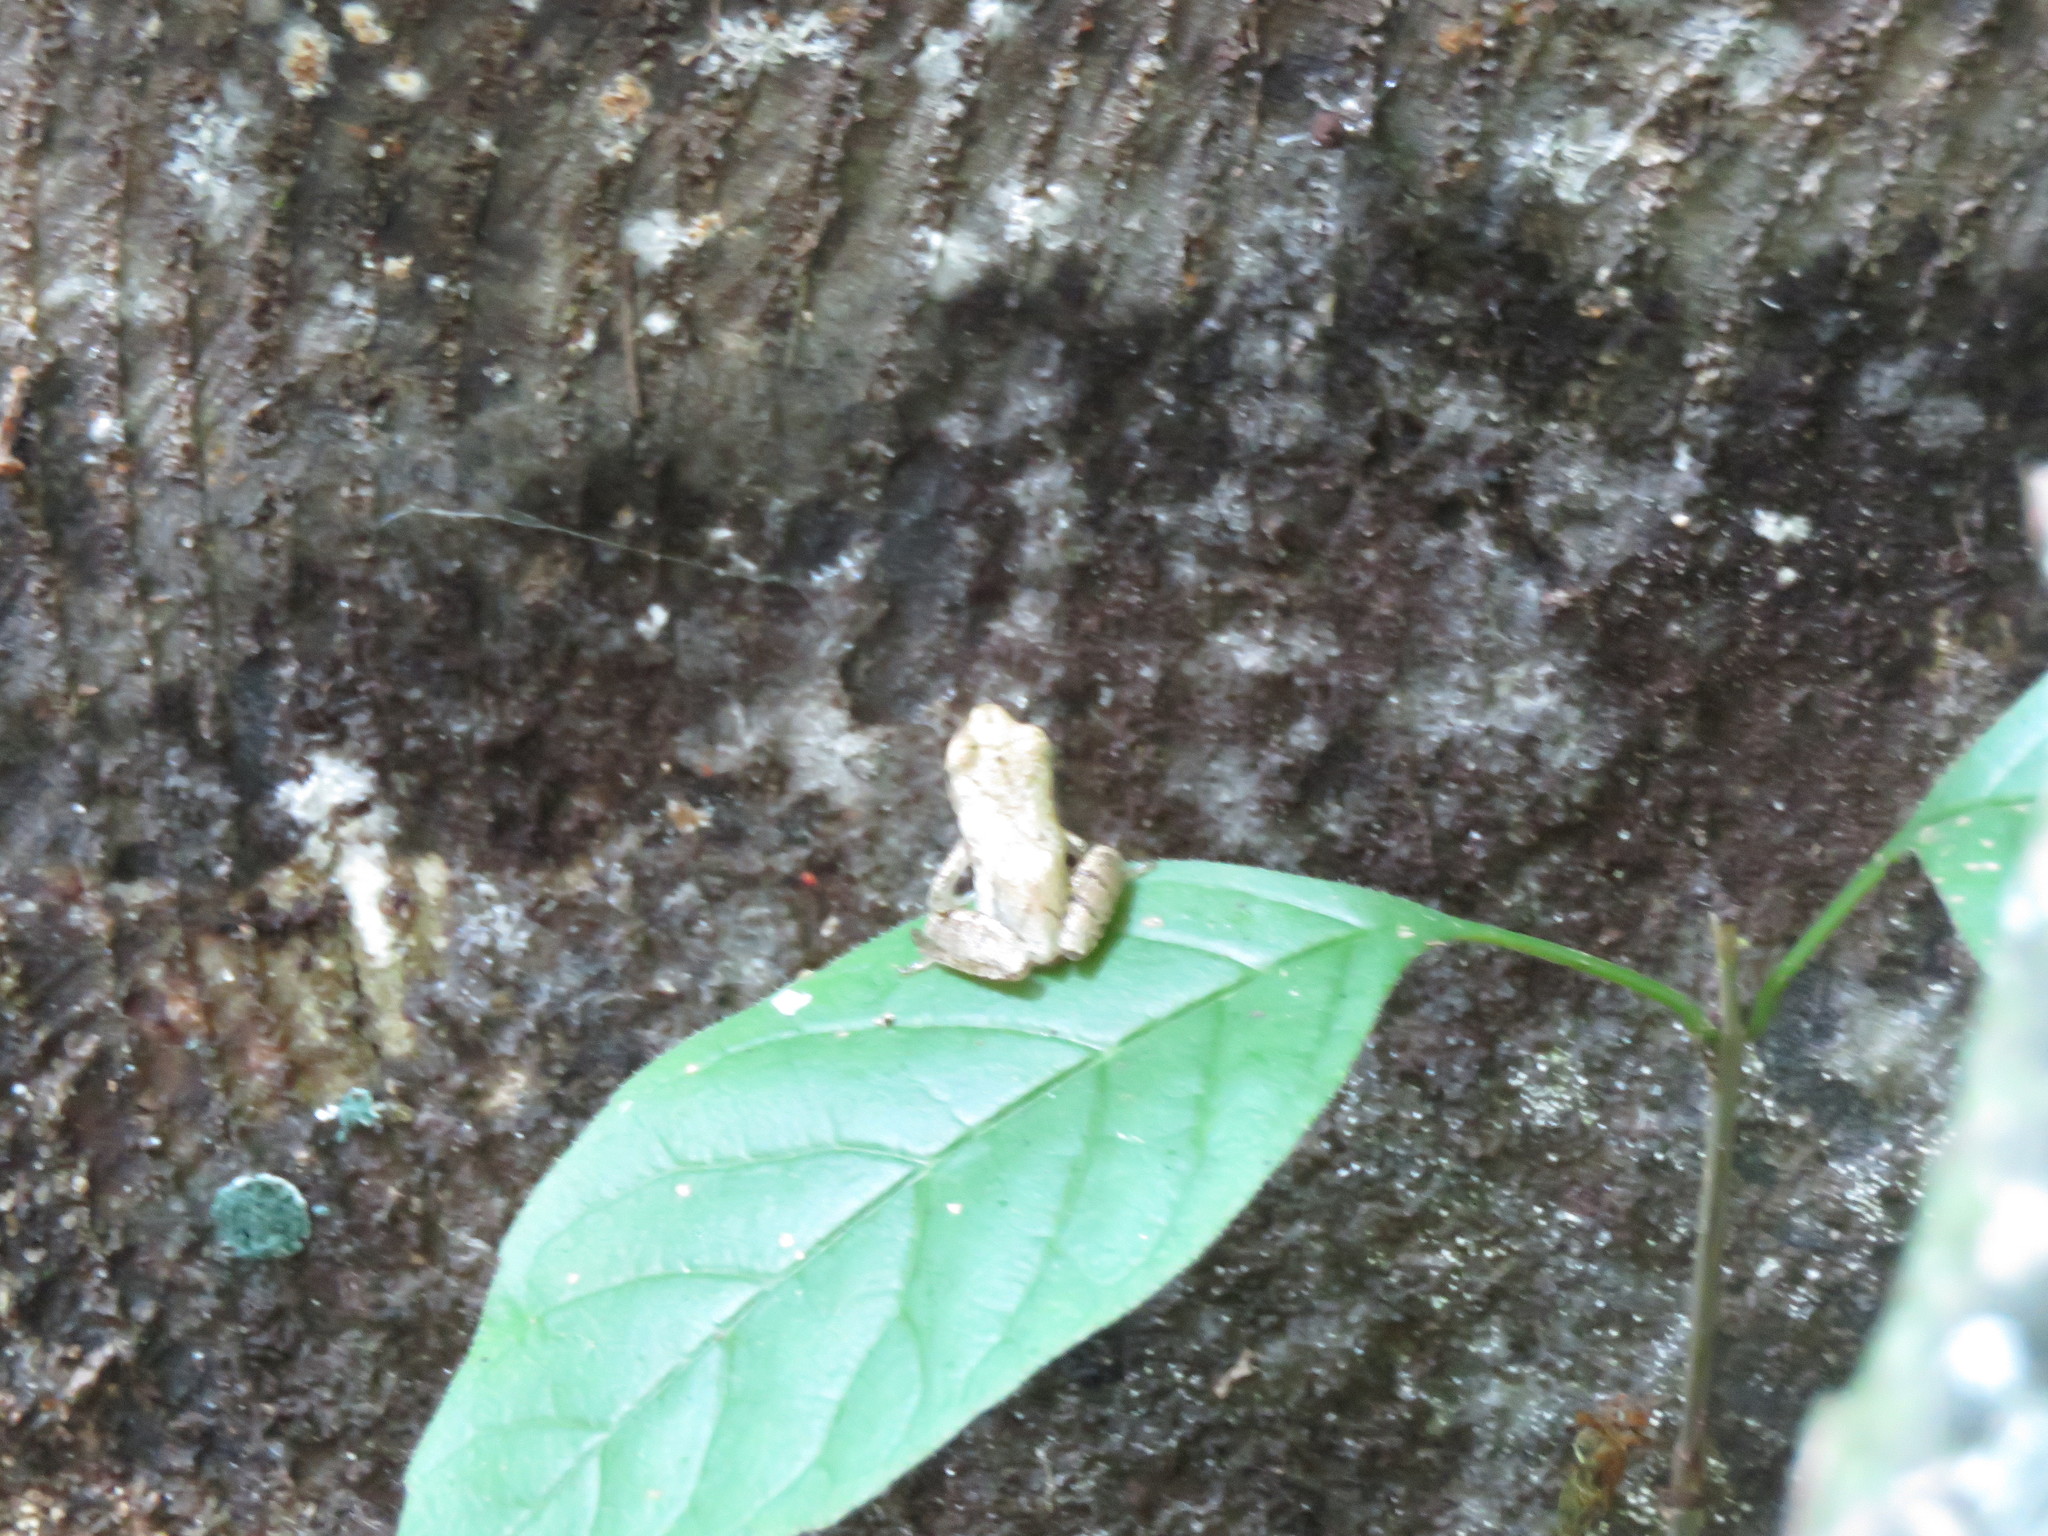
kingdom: Animalia
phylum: Chordata
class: Amphibia
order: Anura
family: Hylidae
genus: Pseudacris
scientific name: Pseudacris crucifer
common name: Spring peeper
